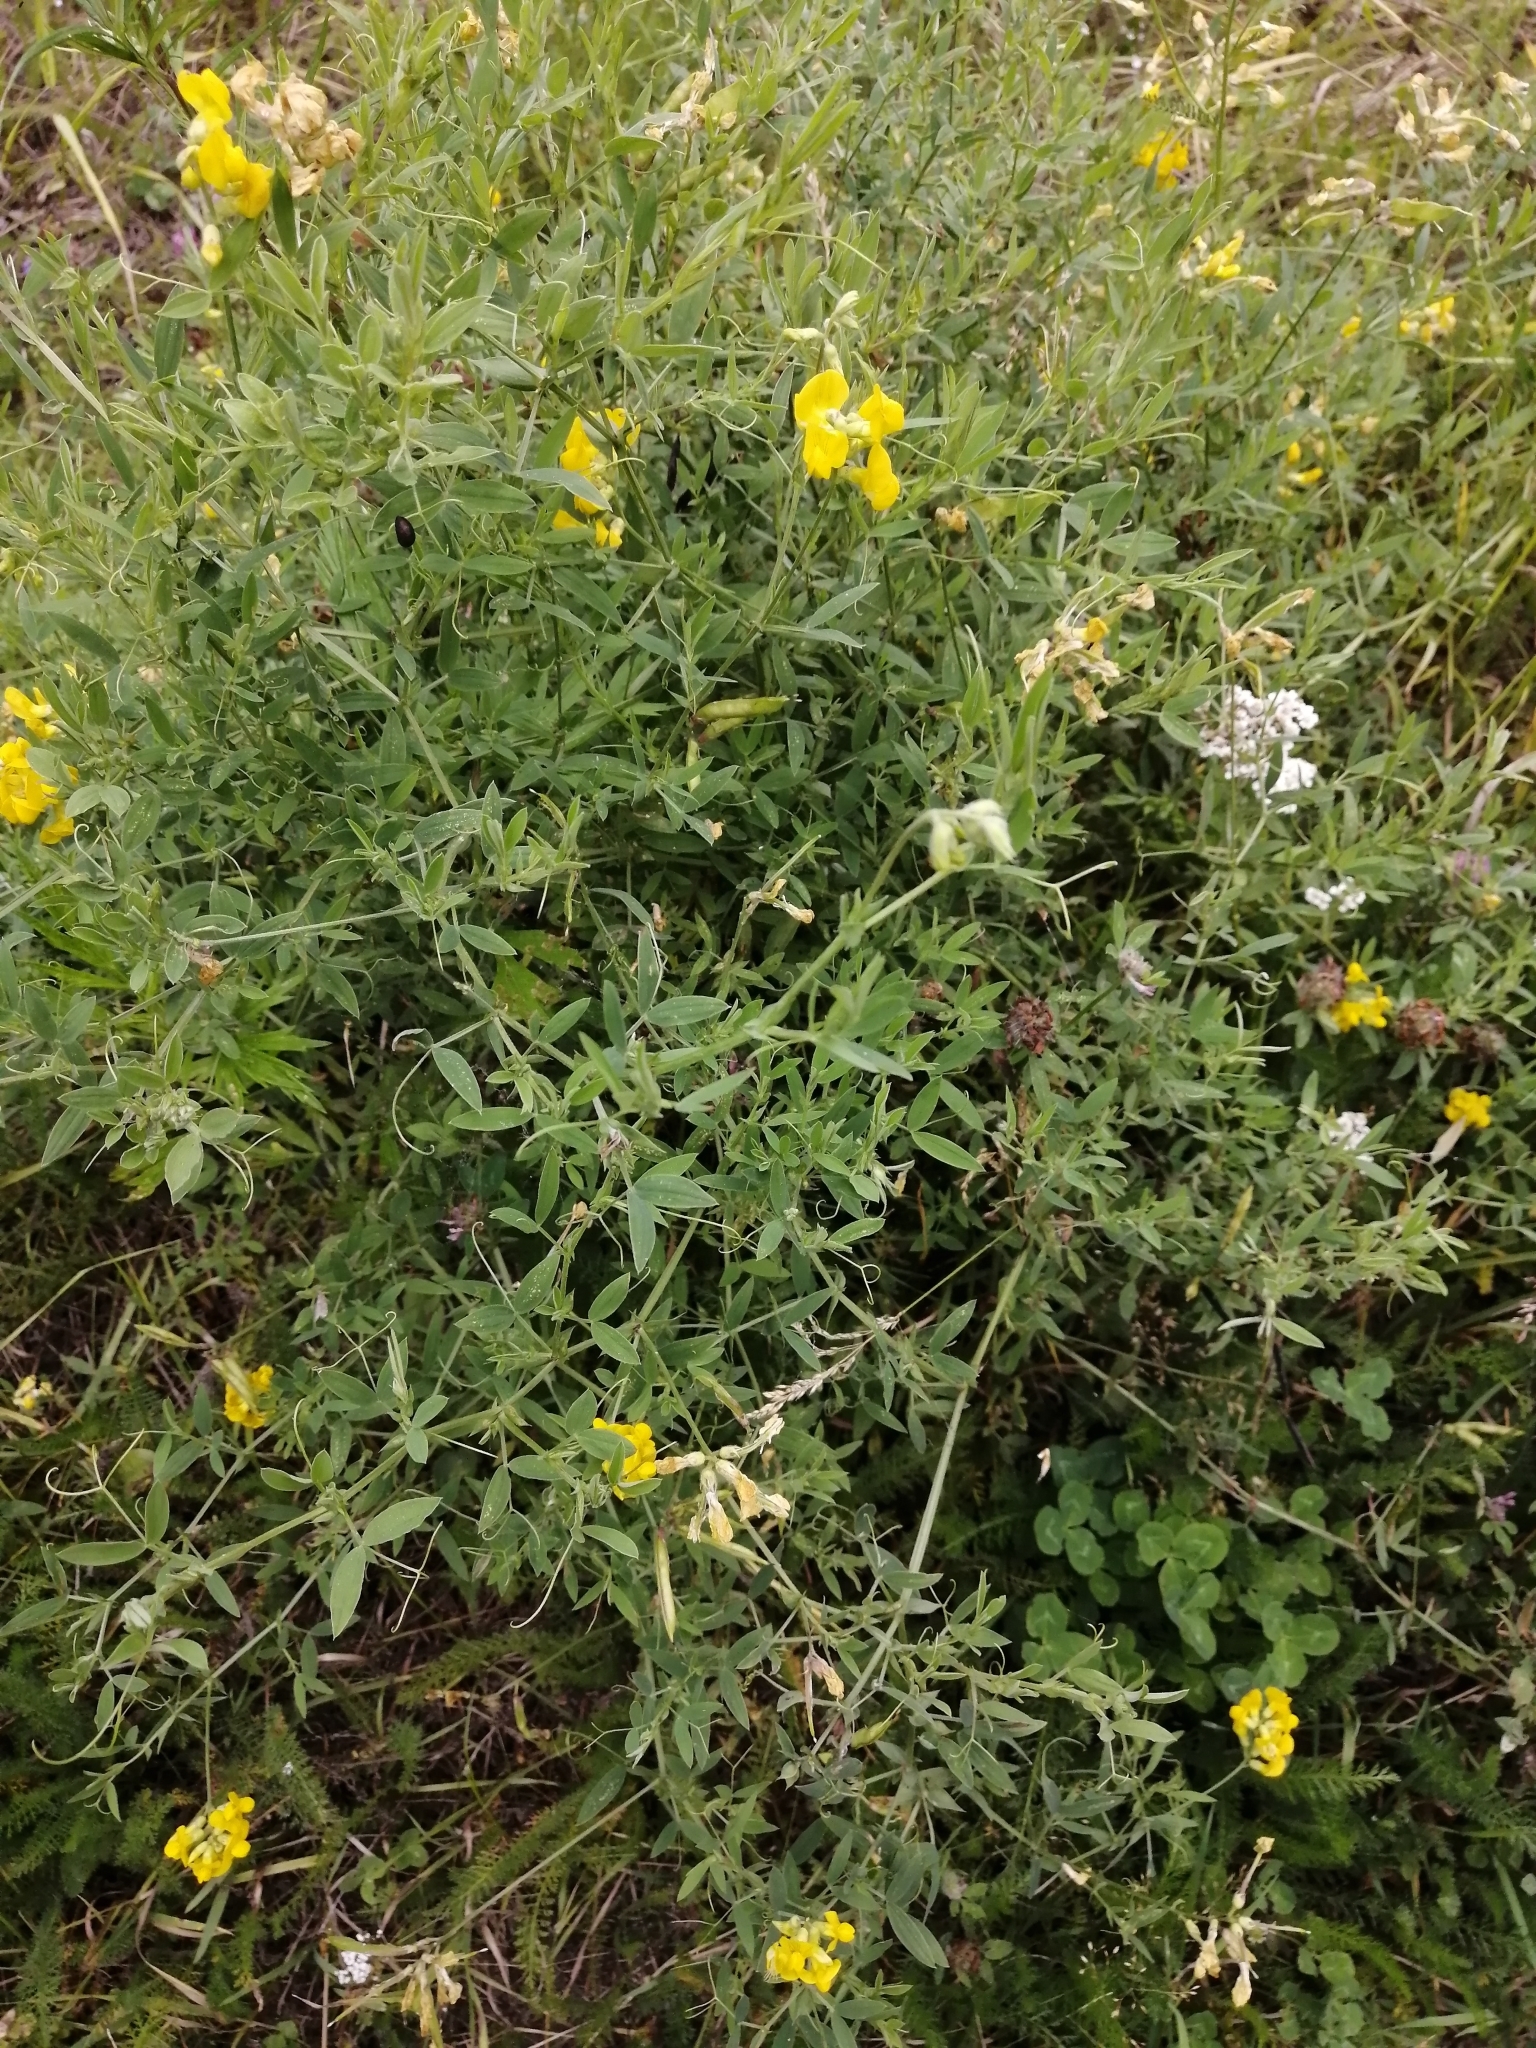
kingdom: Plantae
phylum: Tracheophyta
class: Magnoliopsida
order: Fabales
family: Fabaceae
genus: Lathyrus
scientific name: Lathyrus pratensis
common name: Meadow vetchling
